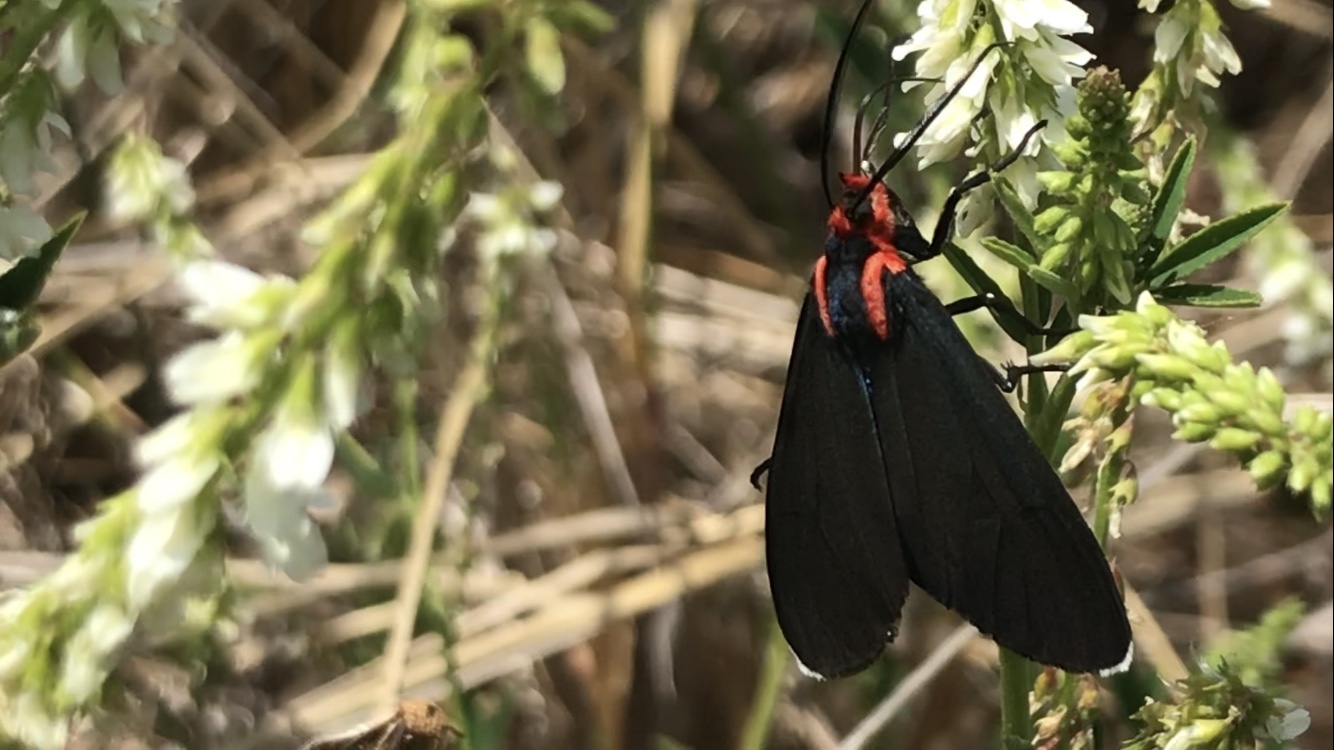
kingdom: Animalia
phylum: Arthropoda
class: Insecta
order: Lepidoptera
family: Erebidae
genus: Ctenucha
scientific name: Ctenucha rubroscapus
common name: Red-shouldered ctenucha
